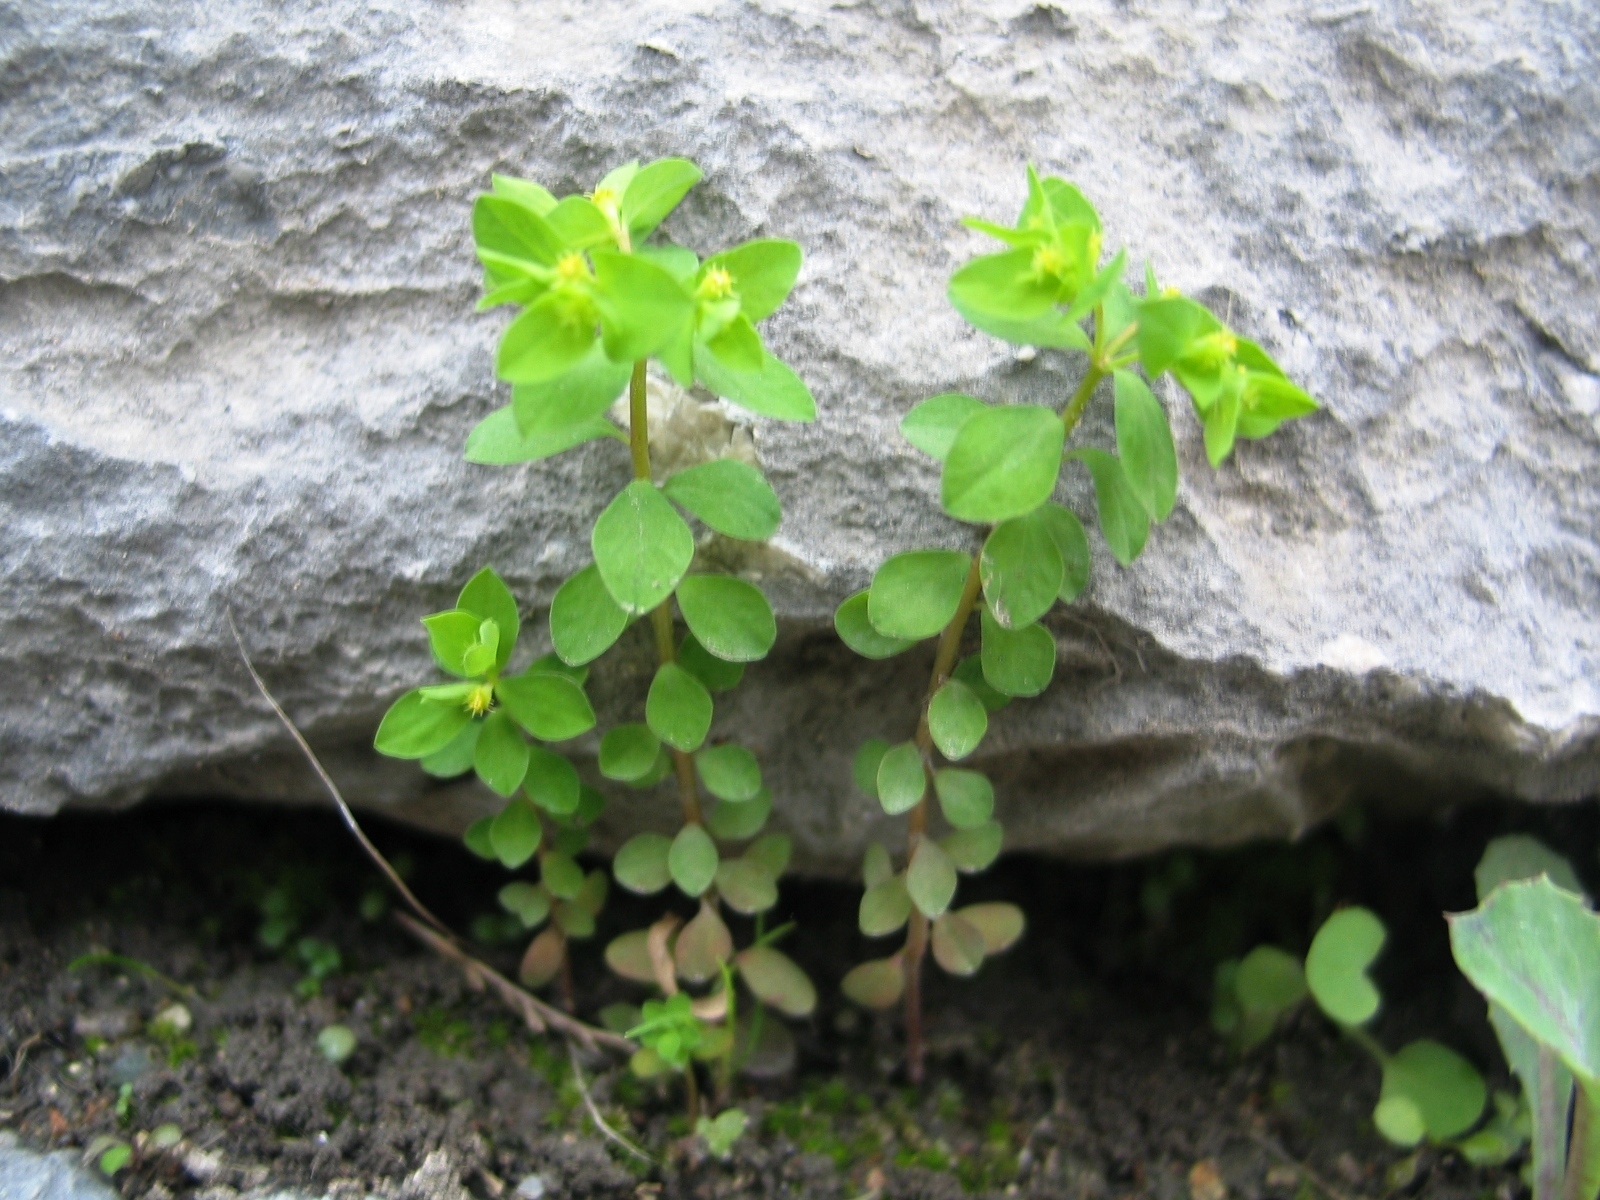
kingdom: Plantae
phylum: Tracheophyta
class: Magnoliopsida
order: Malpighiales
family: Euphorbiaceae
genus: Euphorbia
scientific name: Euphorbia peplus
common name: Petty spurge
